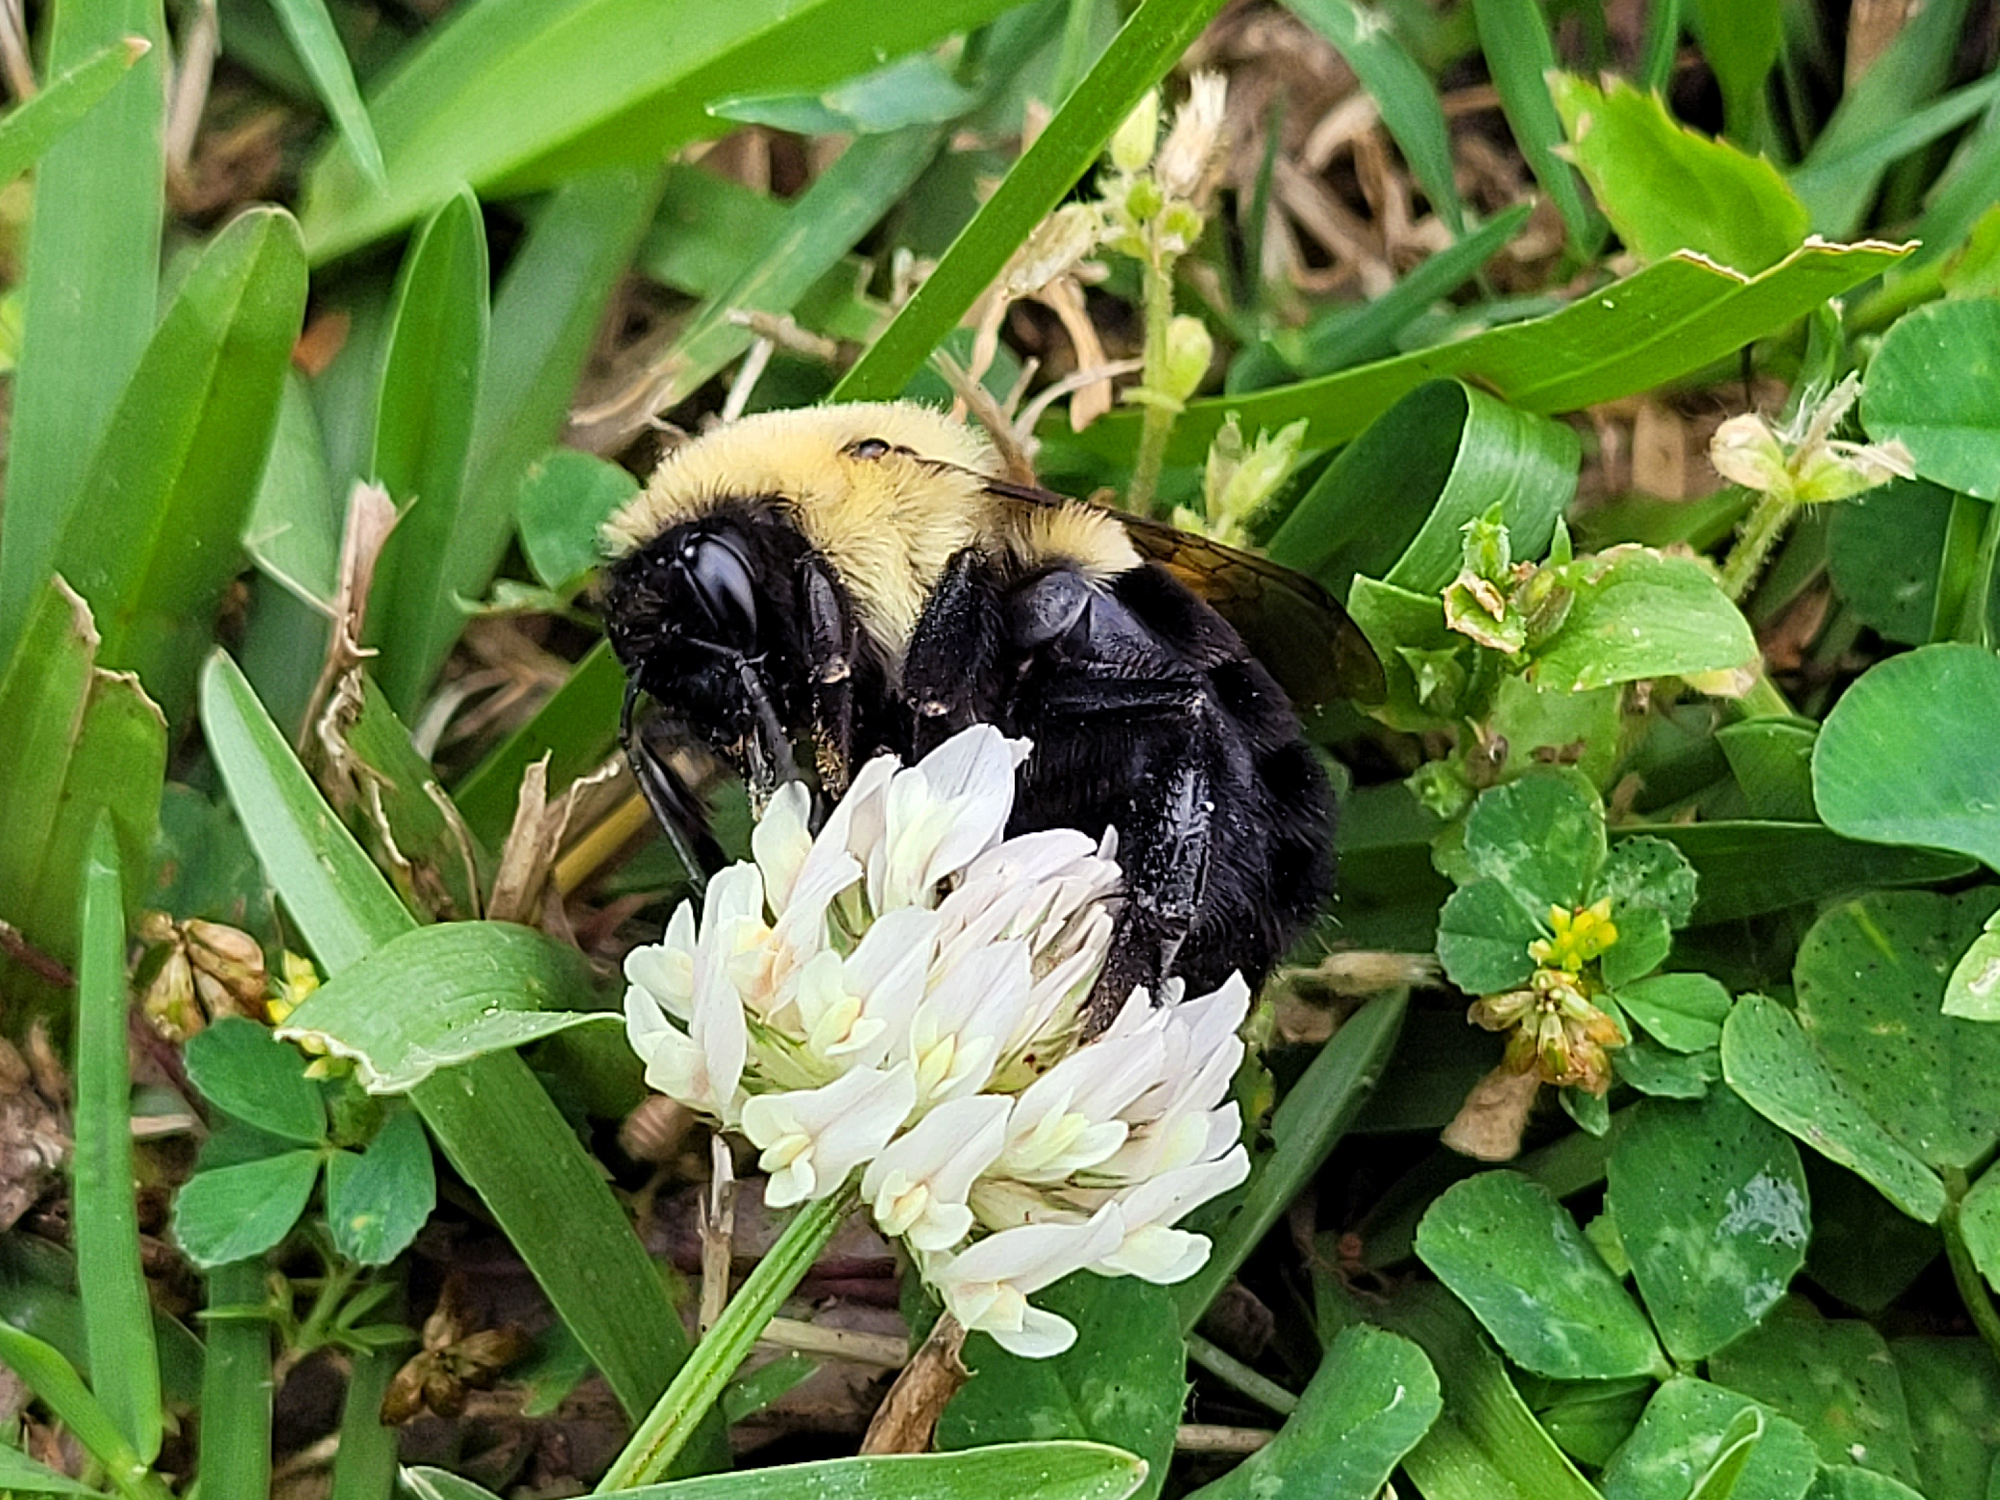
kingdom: Animalia
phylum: Arthropoda
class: Insecta
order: Hymenoptera
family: Apidae
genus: Bombus
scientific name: Bombus impatiens
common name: Common eastern bumble bee
